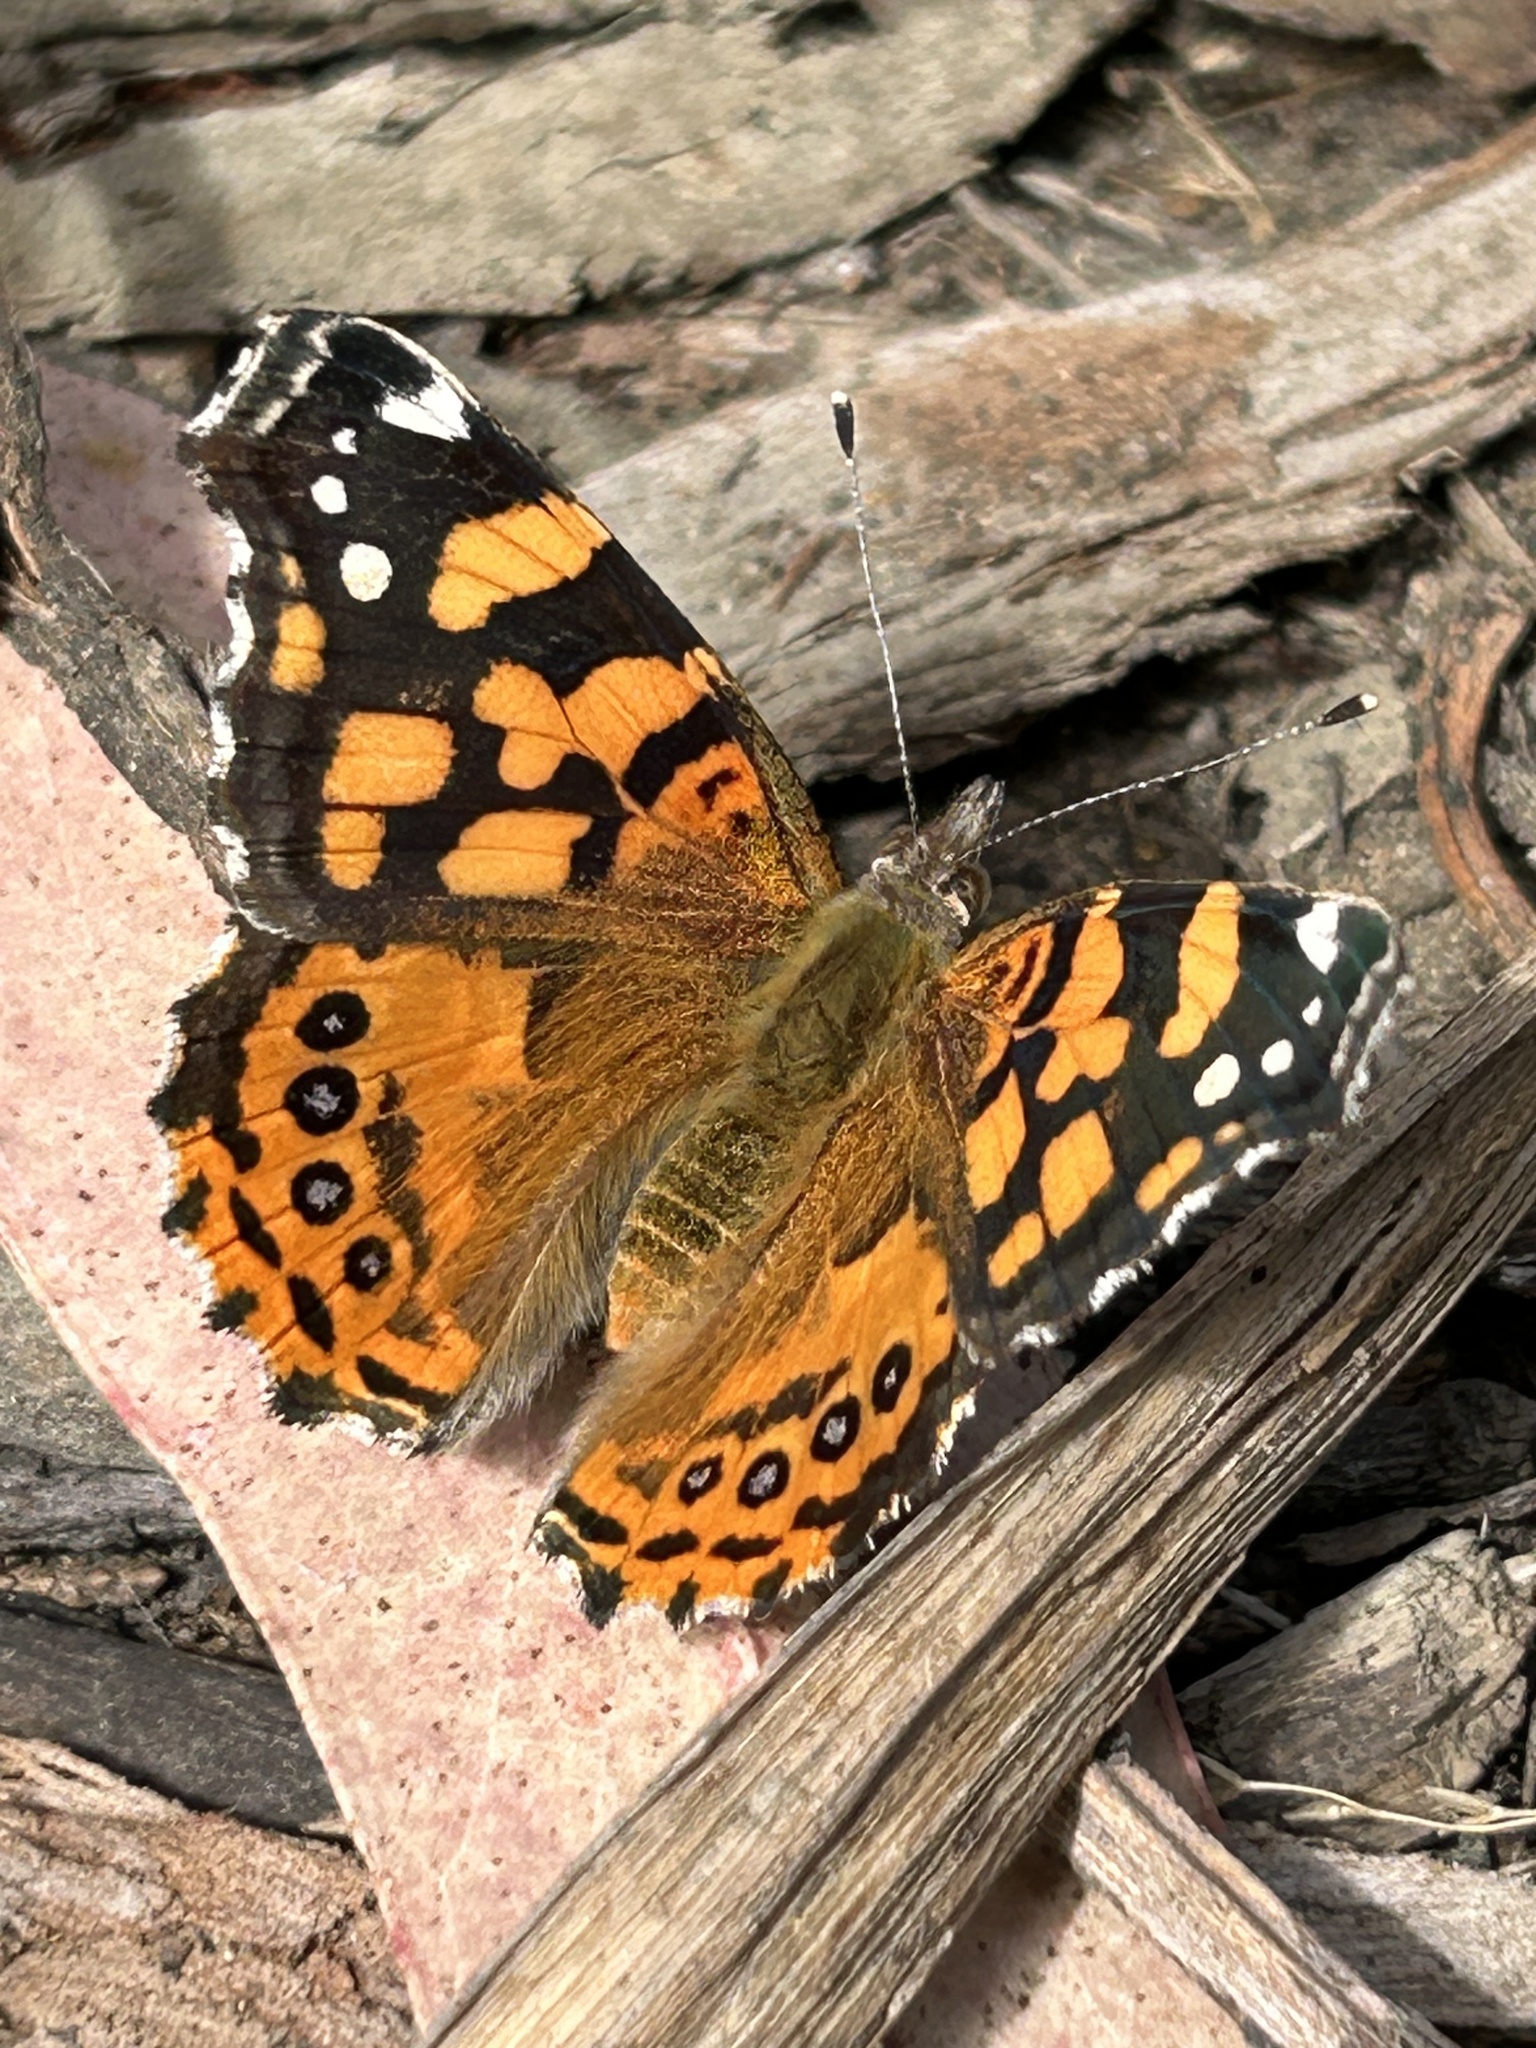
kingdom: Animalia
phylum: Arthropoda
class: Insecta
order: Lepidoptera
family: Nymphalidae
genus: Vanessa
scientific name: Vanessa annabella
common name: West coast lady
